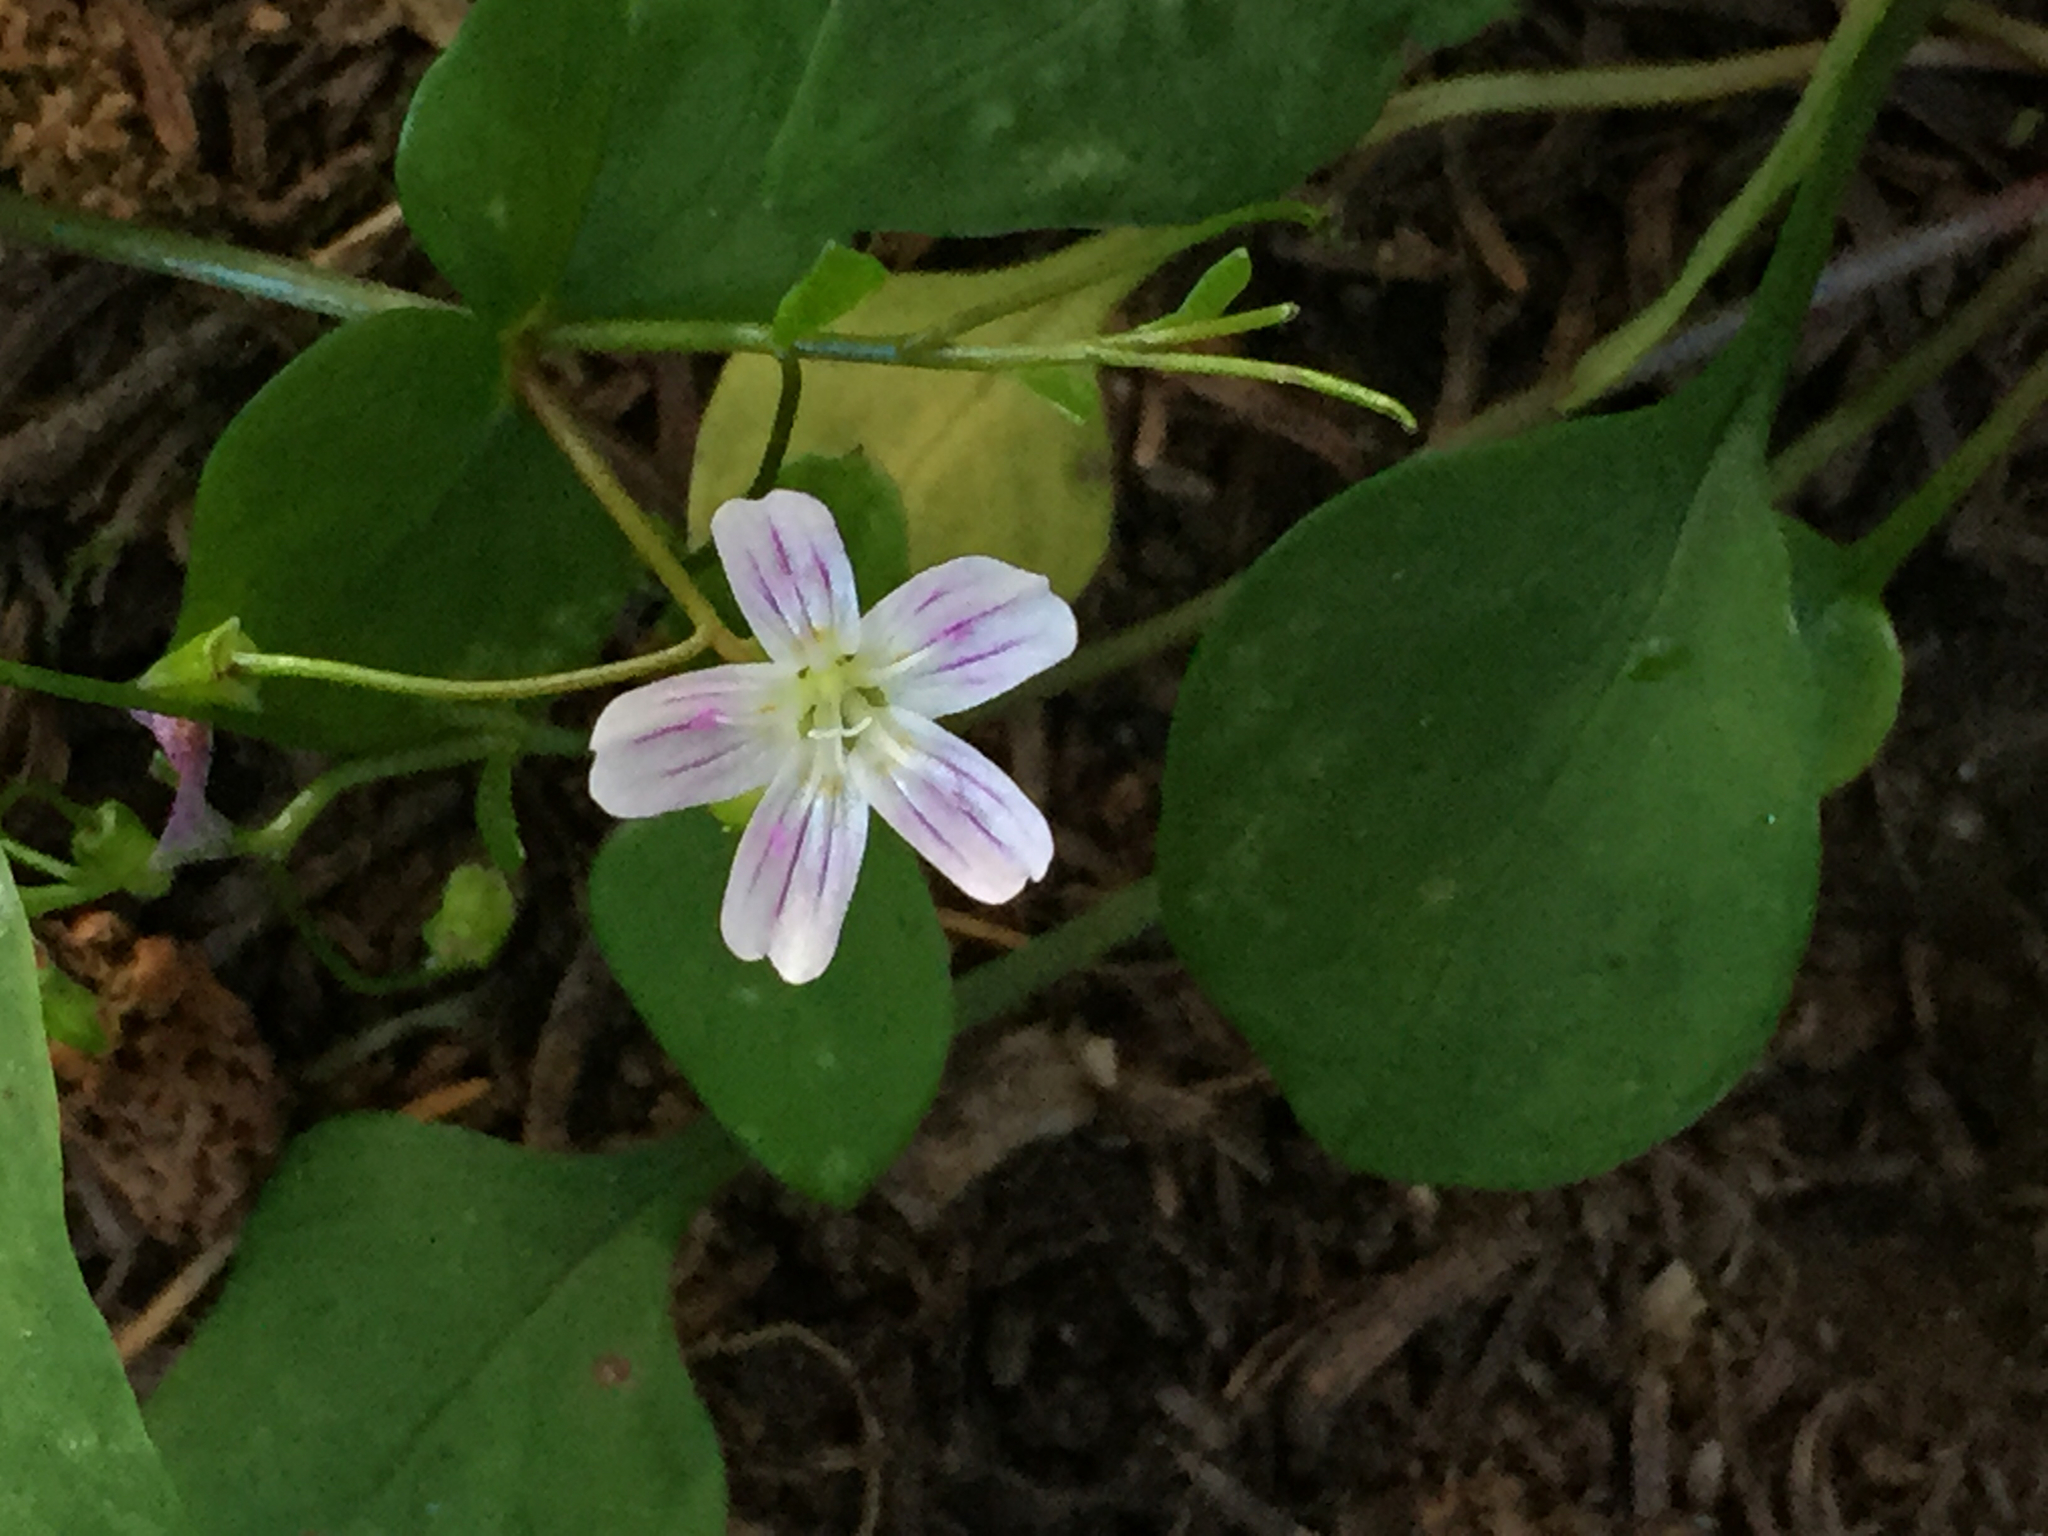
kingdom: Plantae
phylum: Tracheophyta
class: Magnoliopsida
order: Caryophyllales
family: Montiaceae
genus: Claytonia
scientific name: Claytonia sibirica
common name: Pink purslane
